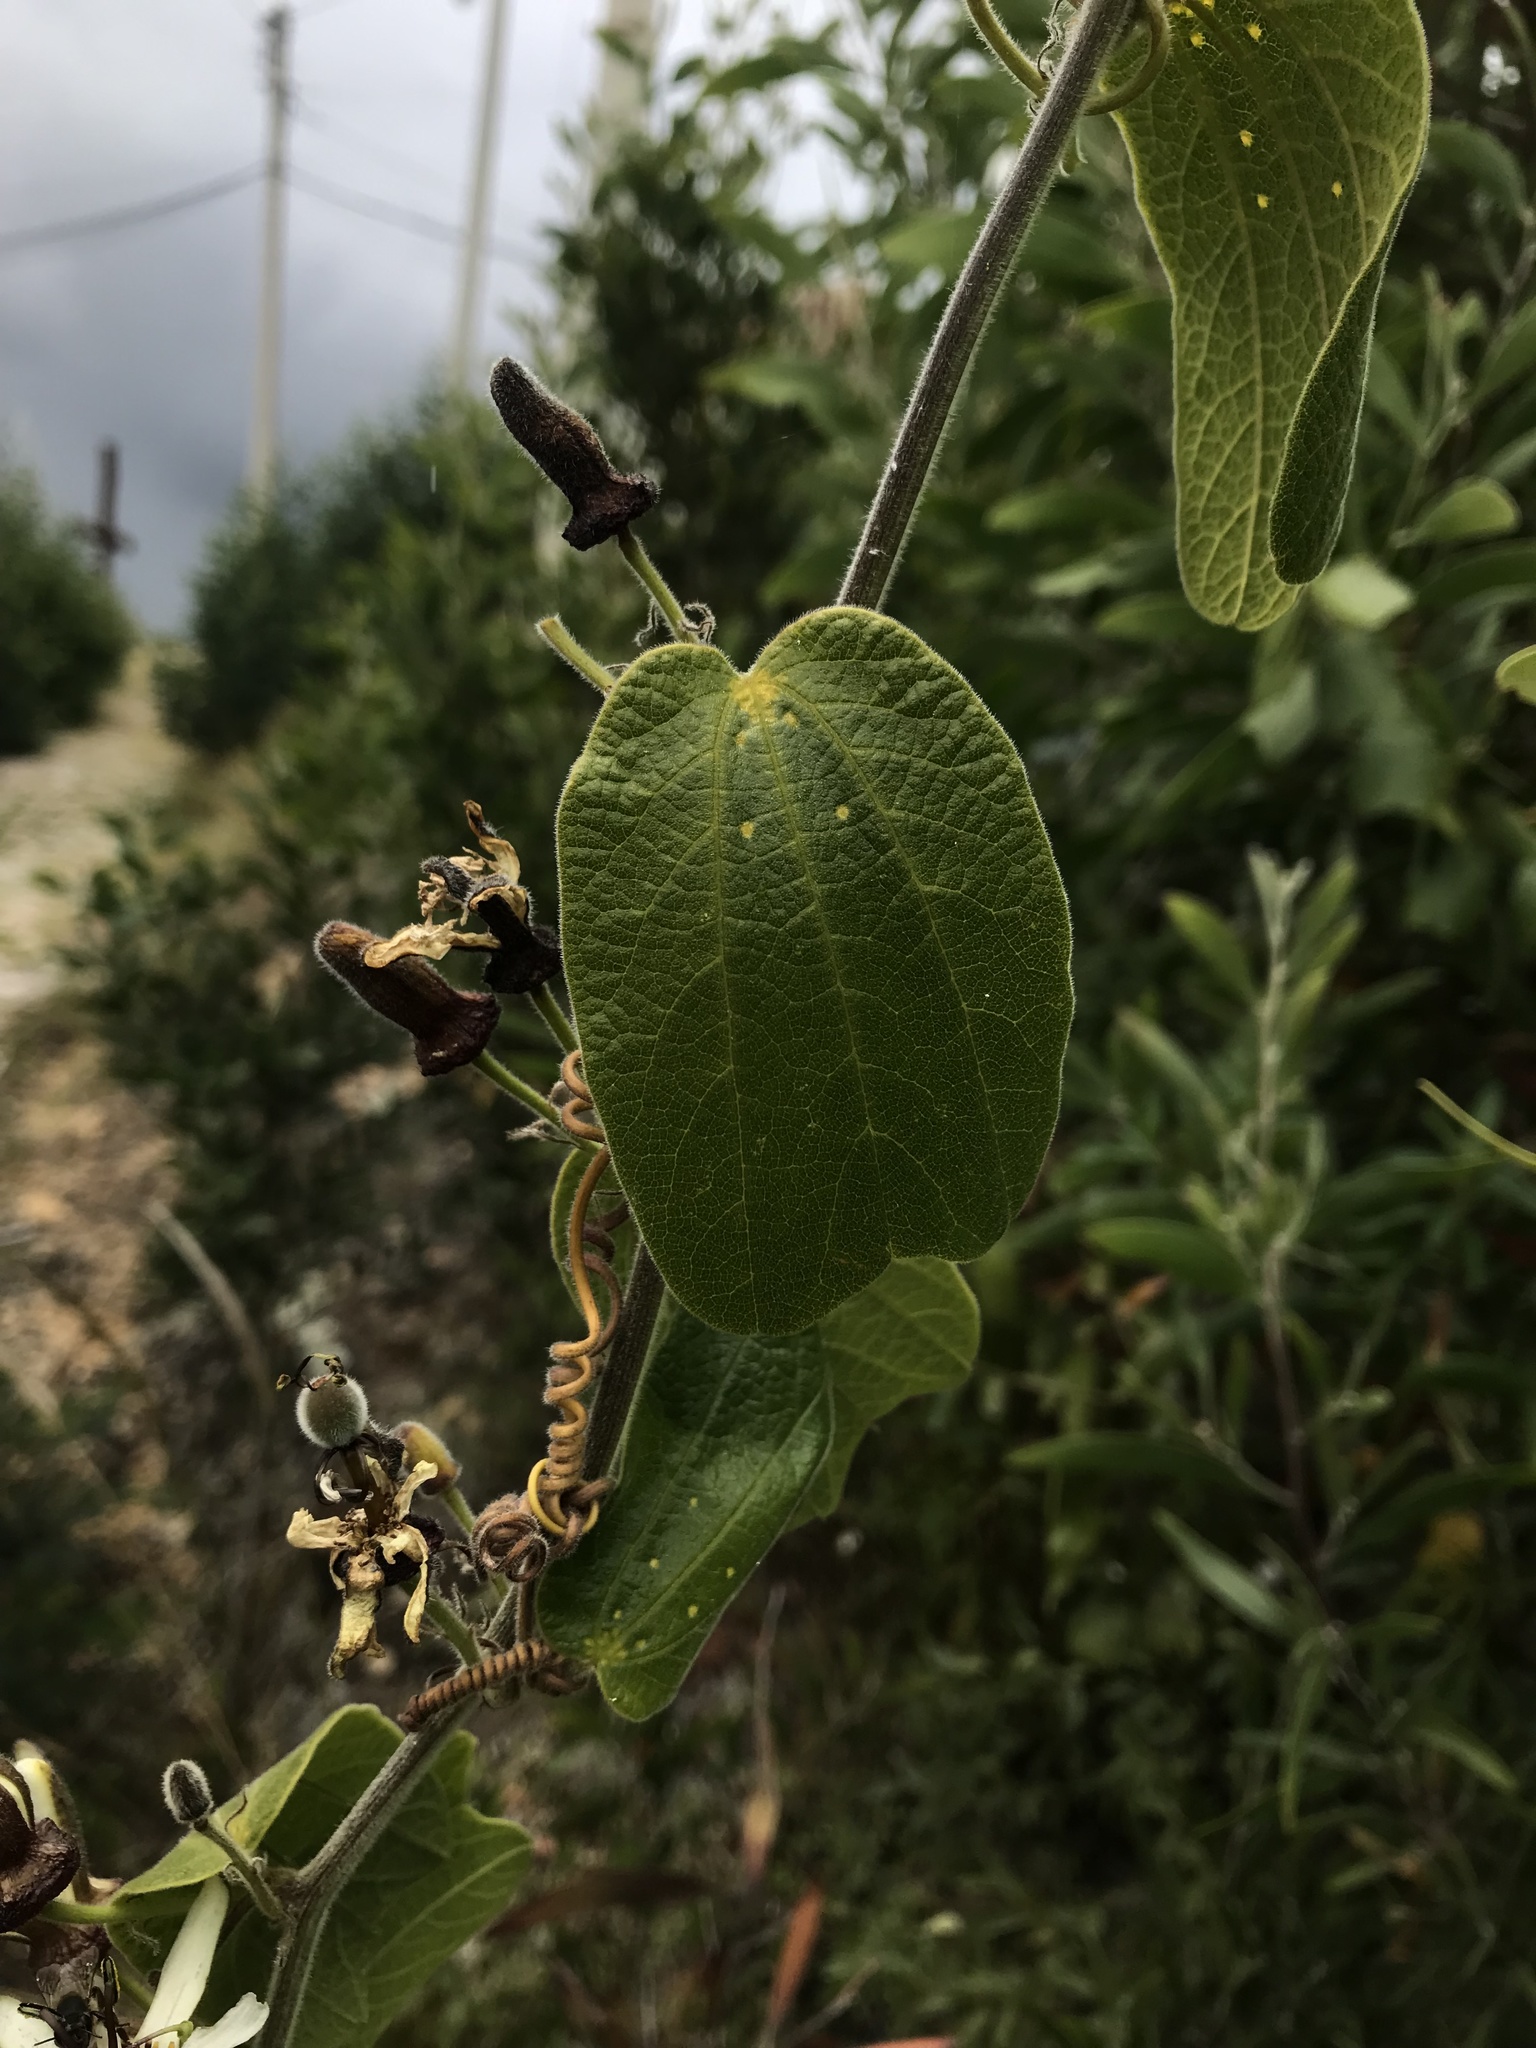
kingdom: Plantae
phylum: Tracheophyta
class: Magnoliopsida
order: Malpighiales
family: Passifloraceae
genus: Passiflora
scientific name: Passiflora bogotensis
